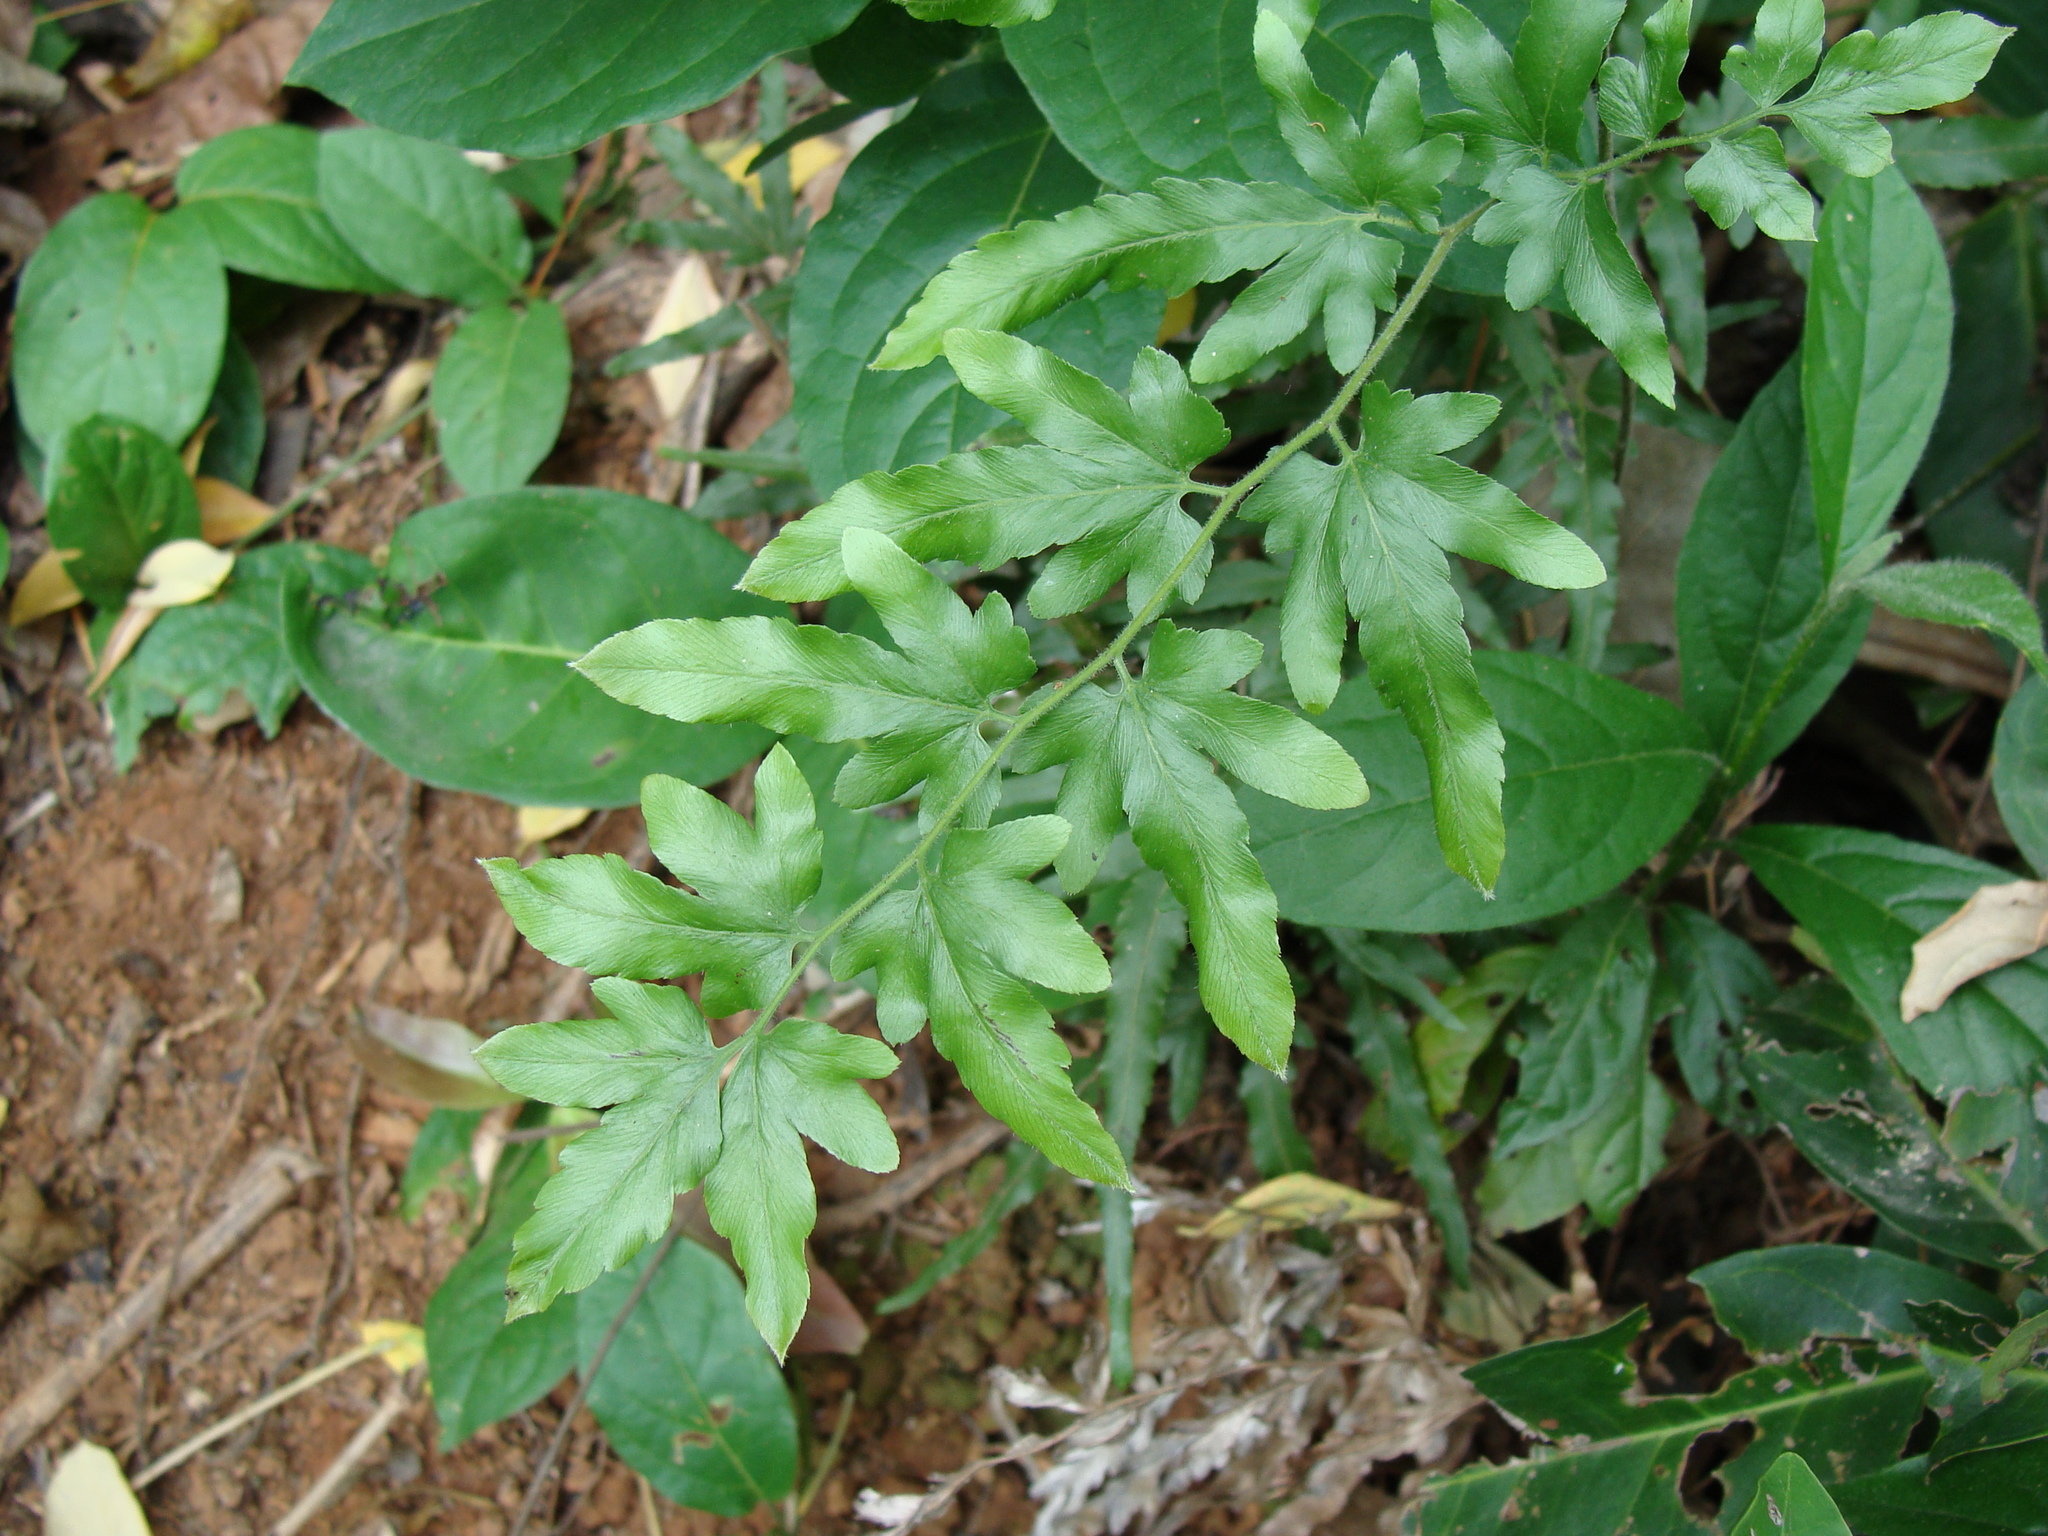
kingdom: Plantae
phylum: Tracheophyta
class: Polypodiopsida
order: Schizaeales
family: Lygodiaceae
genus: Lygodium
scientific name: Lygodium venustum
